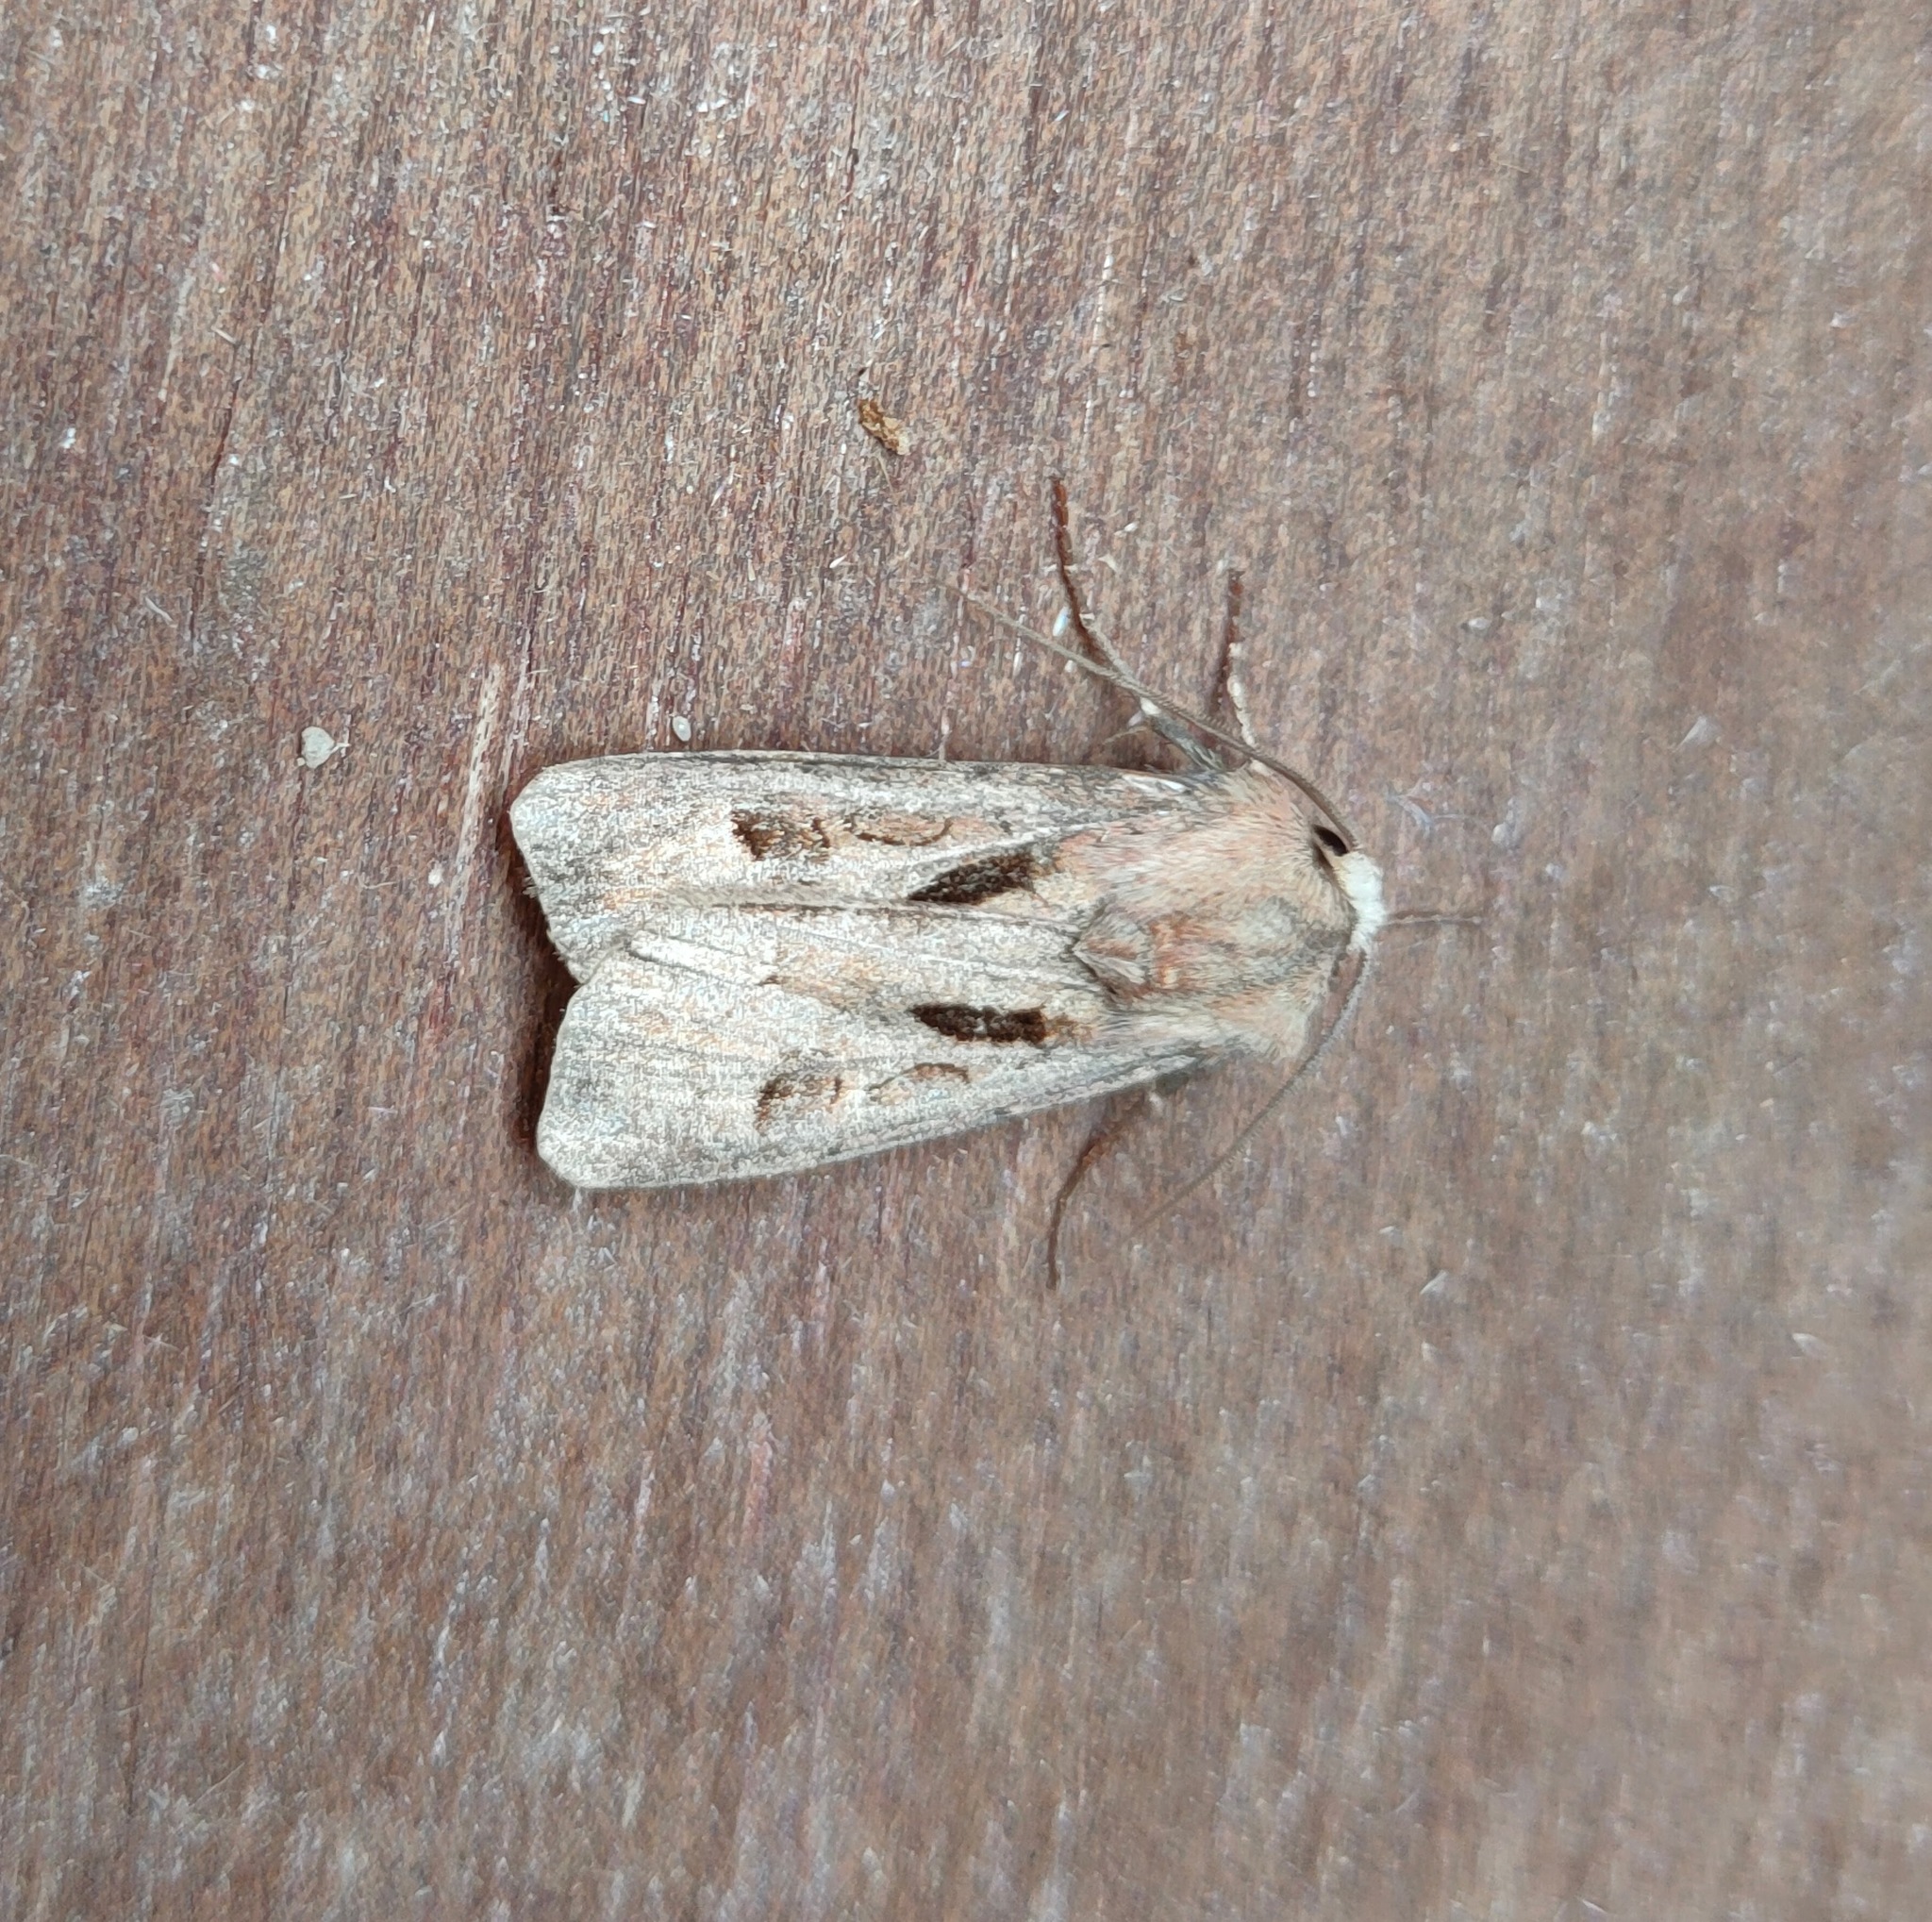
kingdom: Animalia
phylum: Arthropoda
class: Insecta
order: Lepidoptera
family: Noctuidae
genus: Agrotis
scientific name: Agrotis exclamationis
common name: Heart and dart
